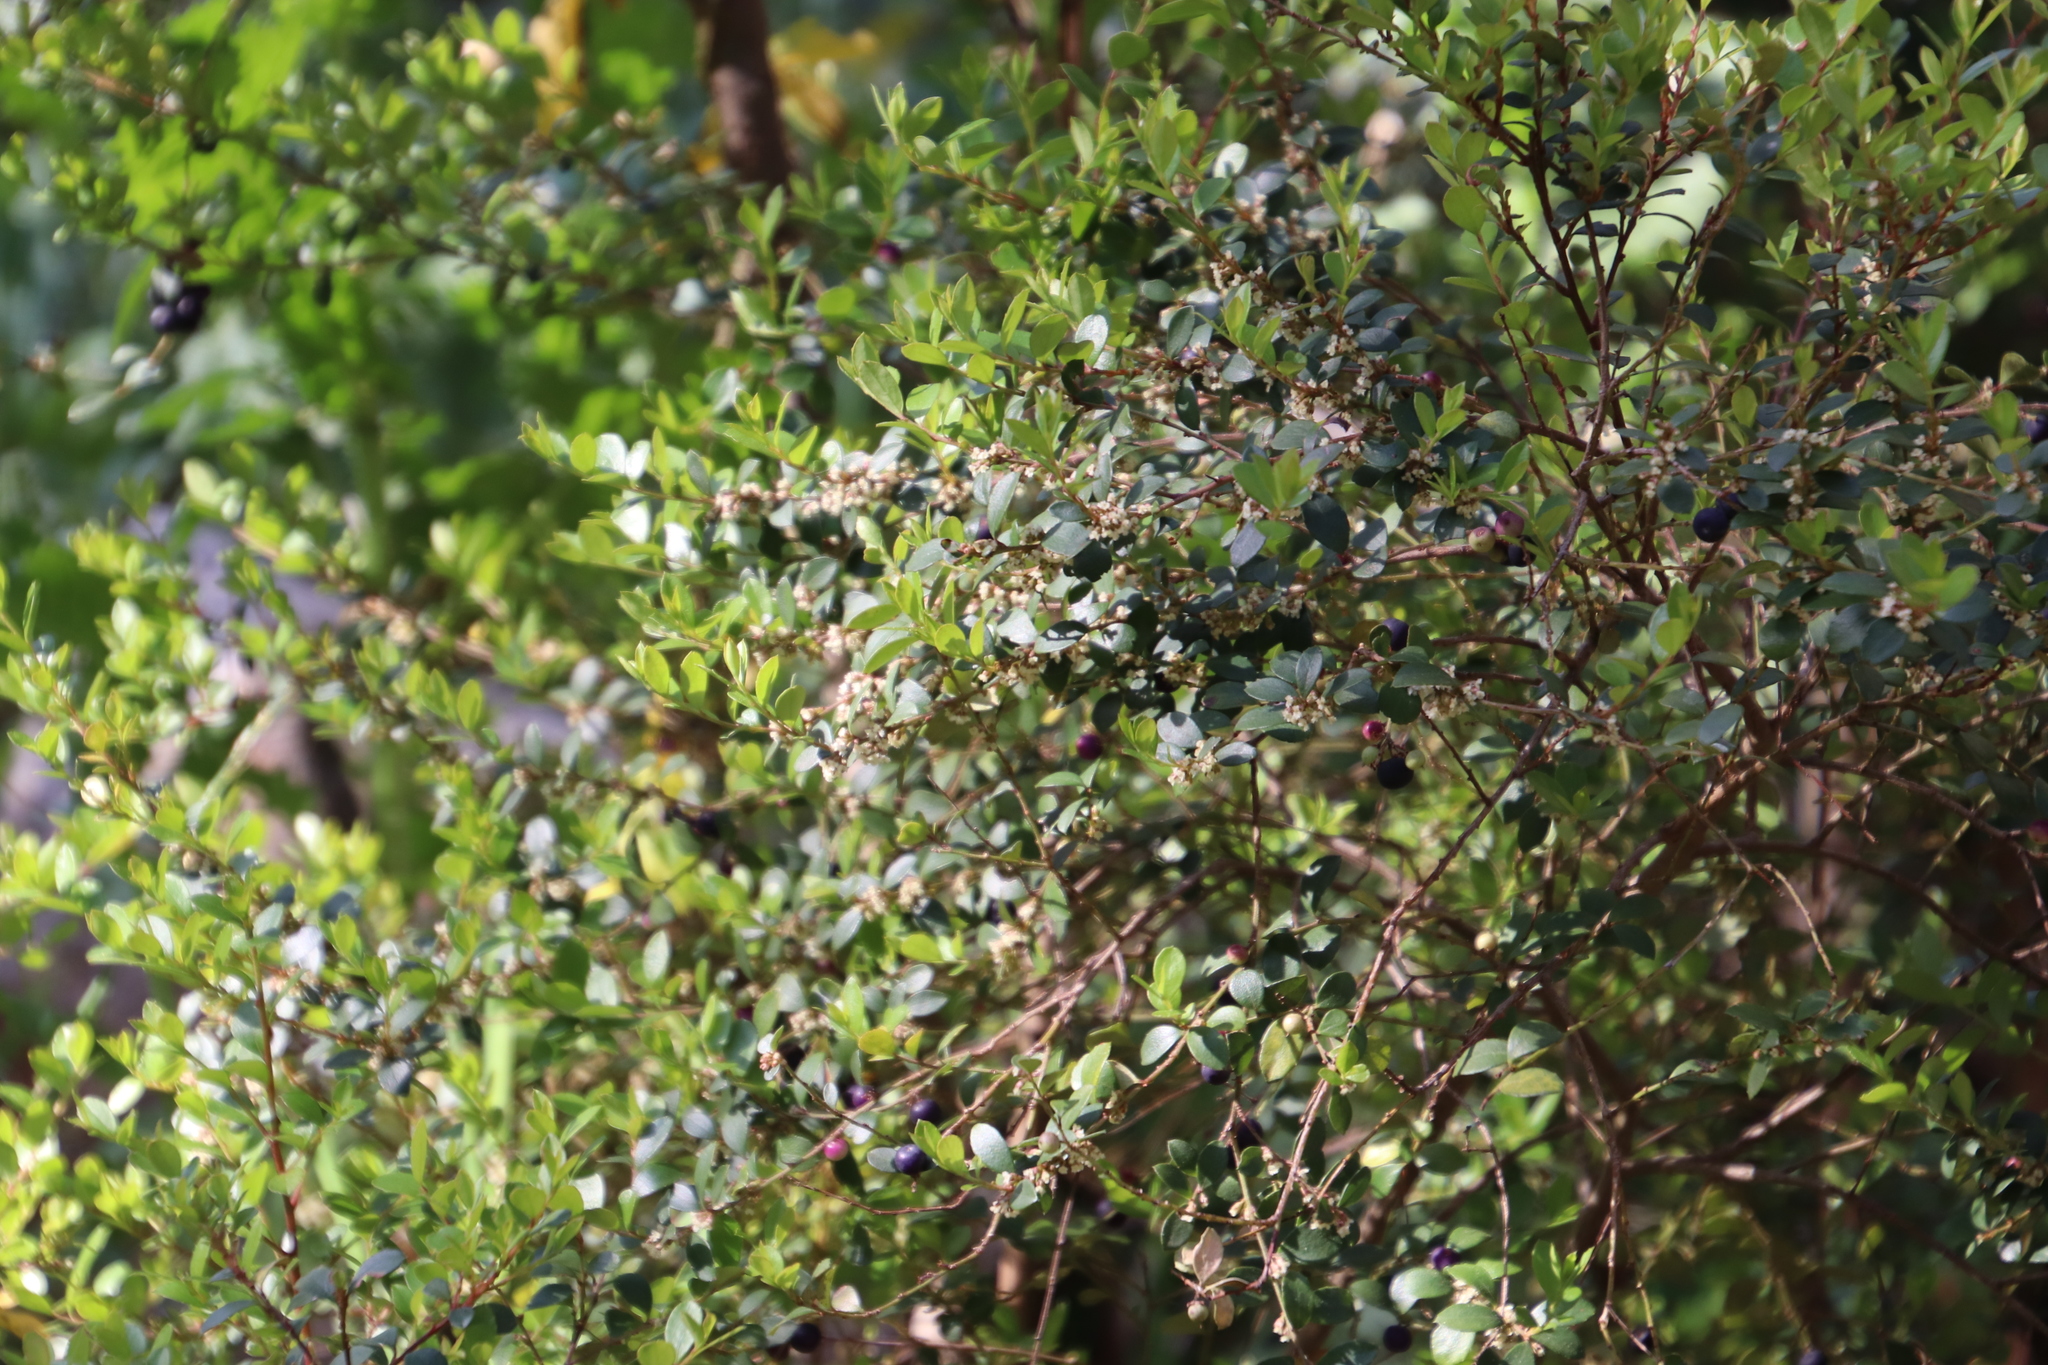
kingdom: Plantae
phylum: Tracheophyta
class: Magnoliopsida
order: Ericales
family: Primulaceae
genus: Myrsine
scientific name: Myrsine africana
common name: African-boxwood
